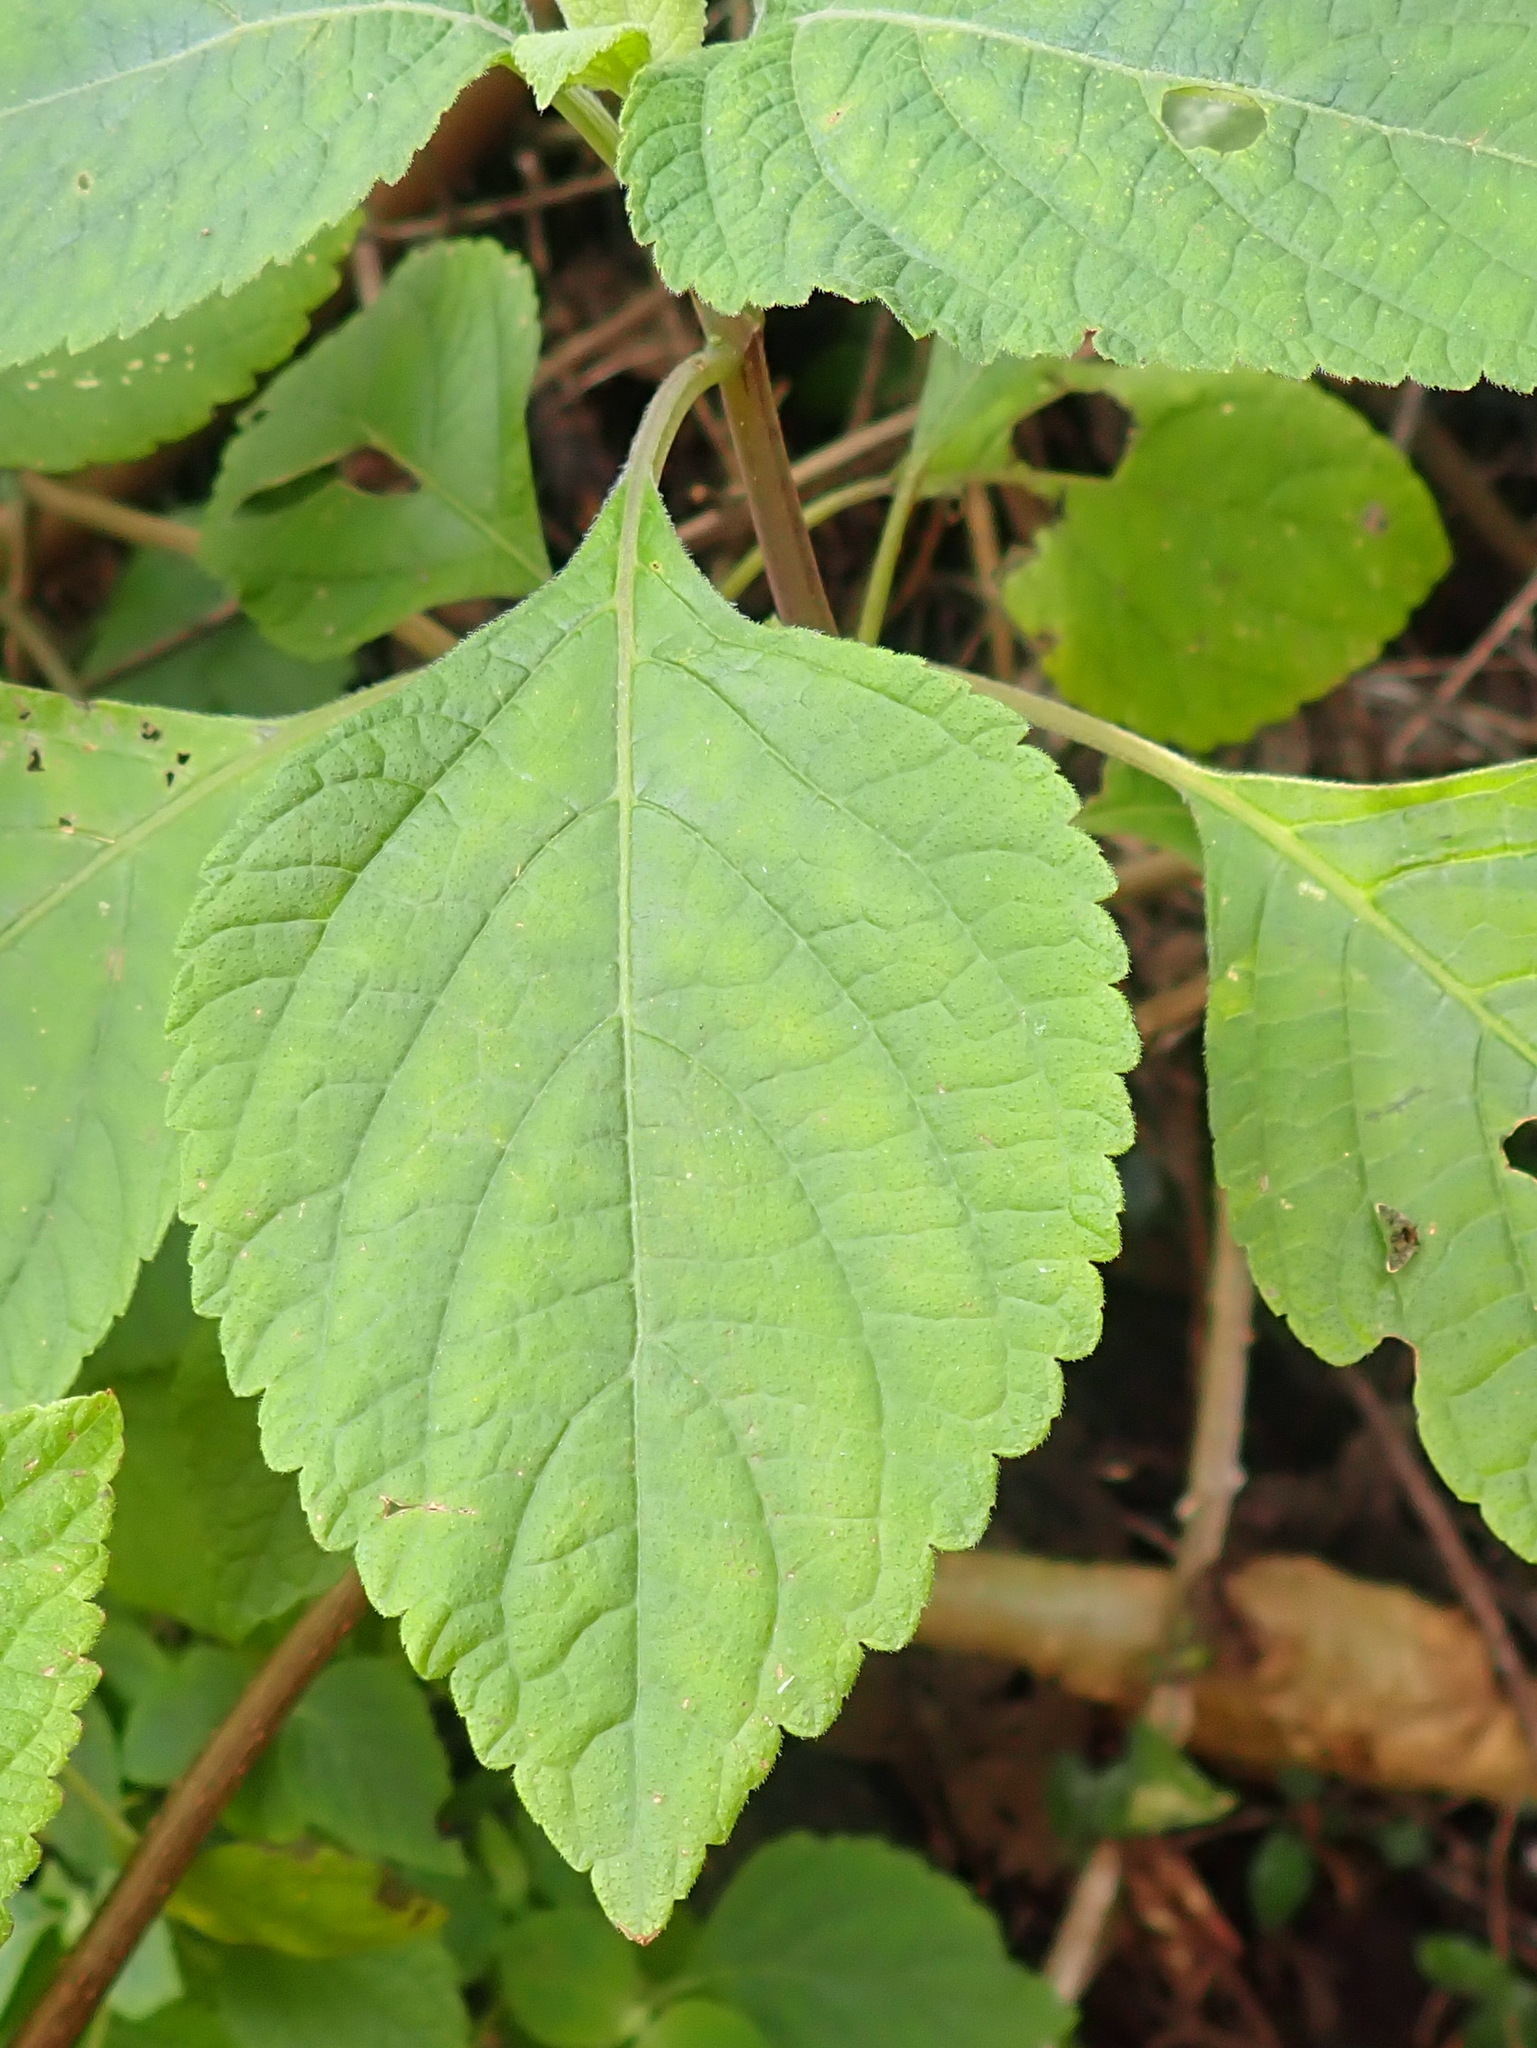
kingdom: Plantae
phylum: Tracheophyta
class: Magnoliopsida
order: Lamiales
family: Lamiaceae
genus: Plectranthus
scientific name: Plectranthus fruticosus
